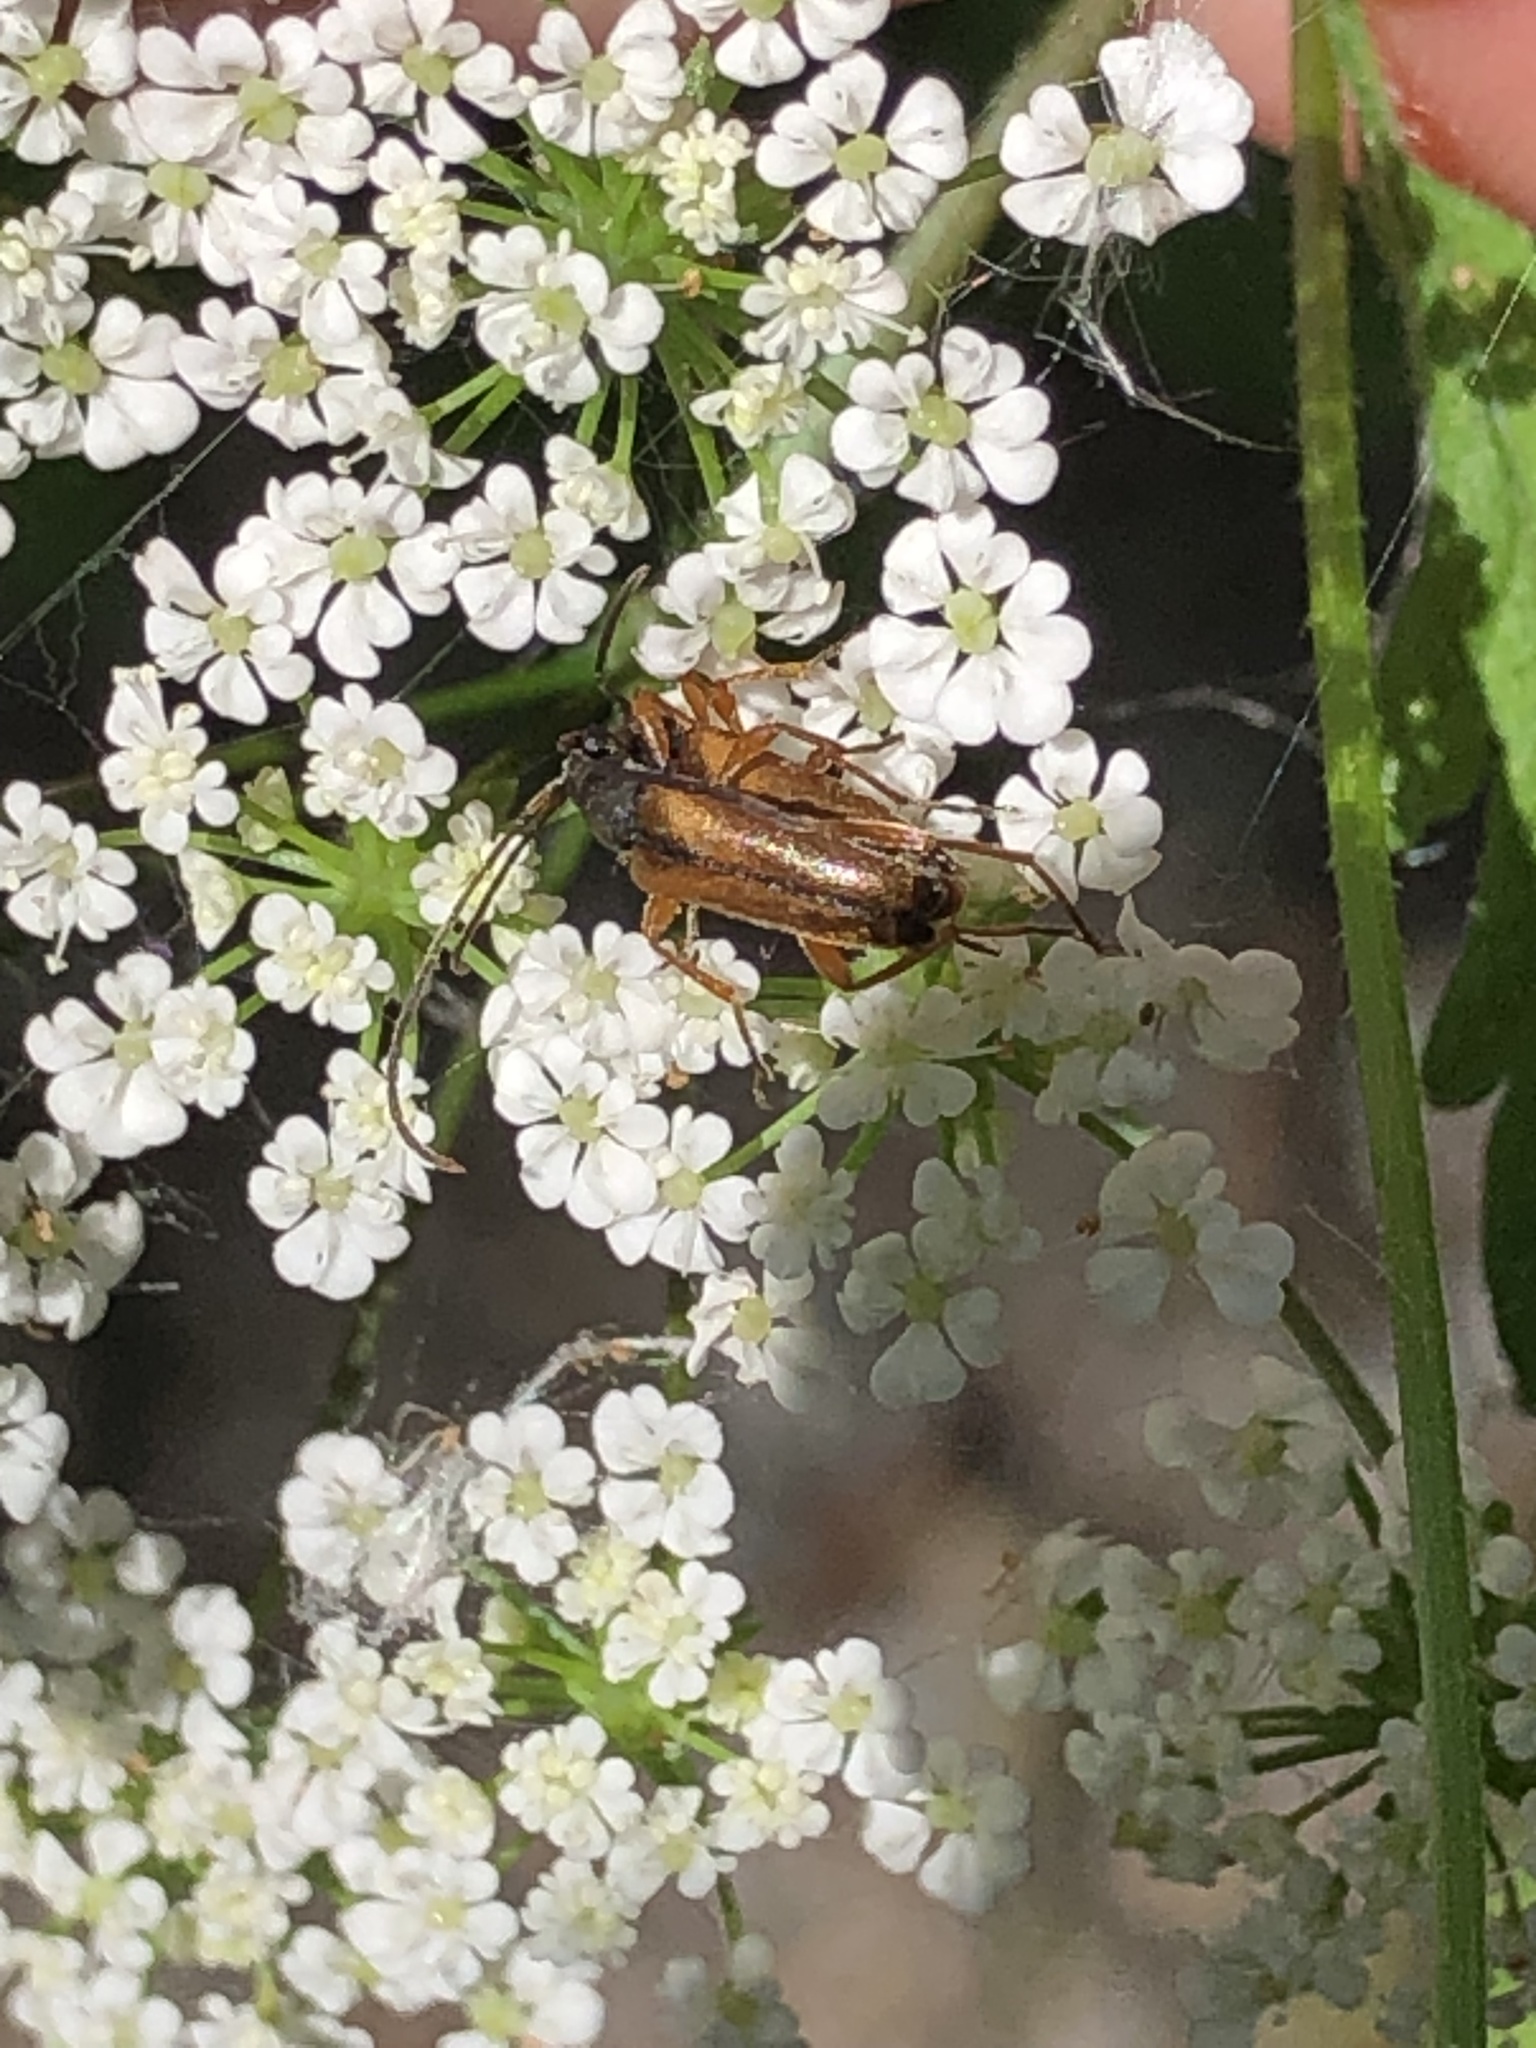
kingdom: Animalia
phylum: Arthropoda
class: Insecta
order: Coleoptera
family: Cerambycidae
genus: Alosterna
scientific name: Alosterna tabacicolor
